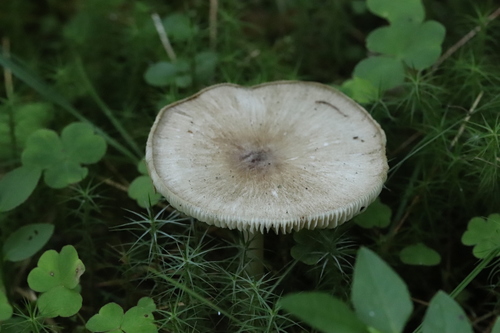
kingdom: Fungi
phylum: Basidiomycota
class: Agaricomycetes
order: Agaricales
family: Tricholomataceae
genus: Megacollybia
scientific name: Megacollybia platyphylla
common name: Whitelaced shank
